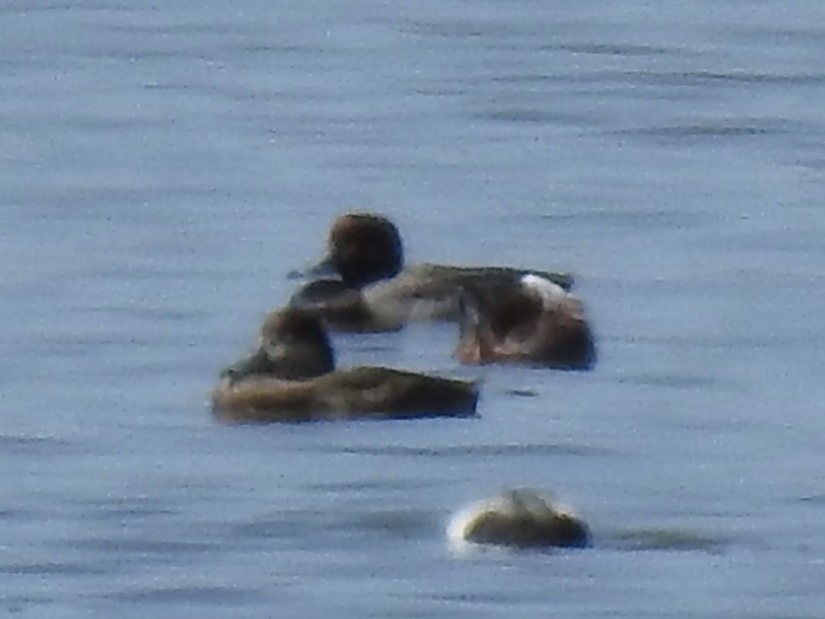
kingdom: Animalia
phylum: Chordata
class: Aves
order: Anseriformes
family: Anatidae
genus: Aythya
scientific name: Aythya americana
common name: Redhead
